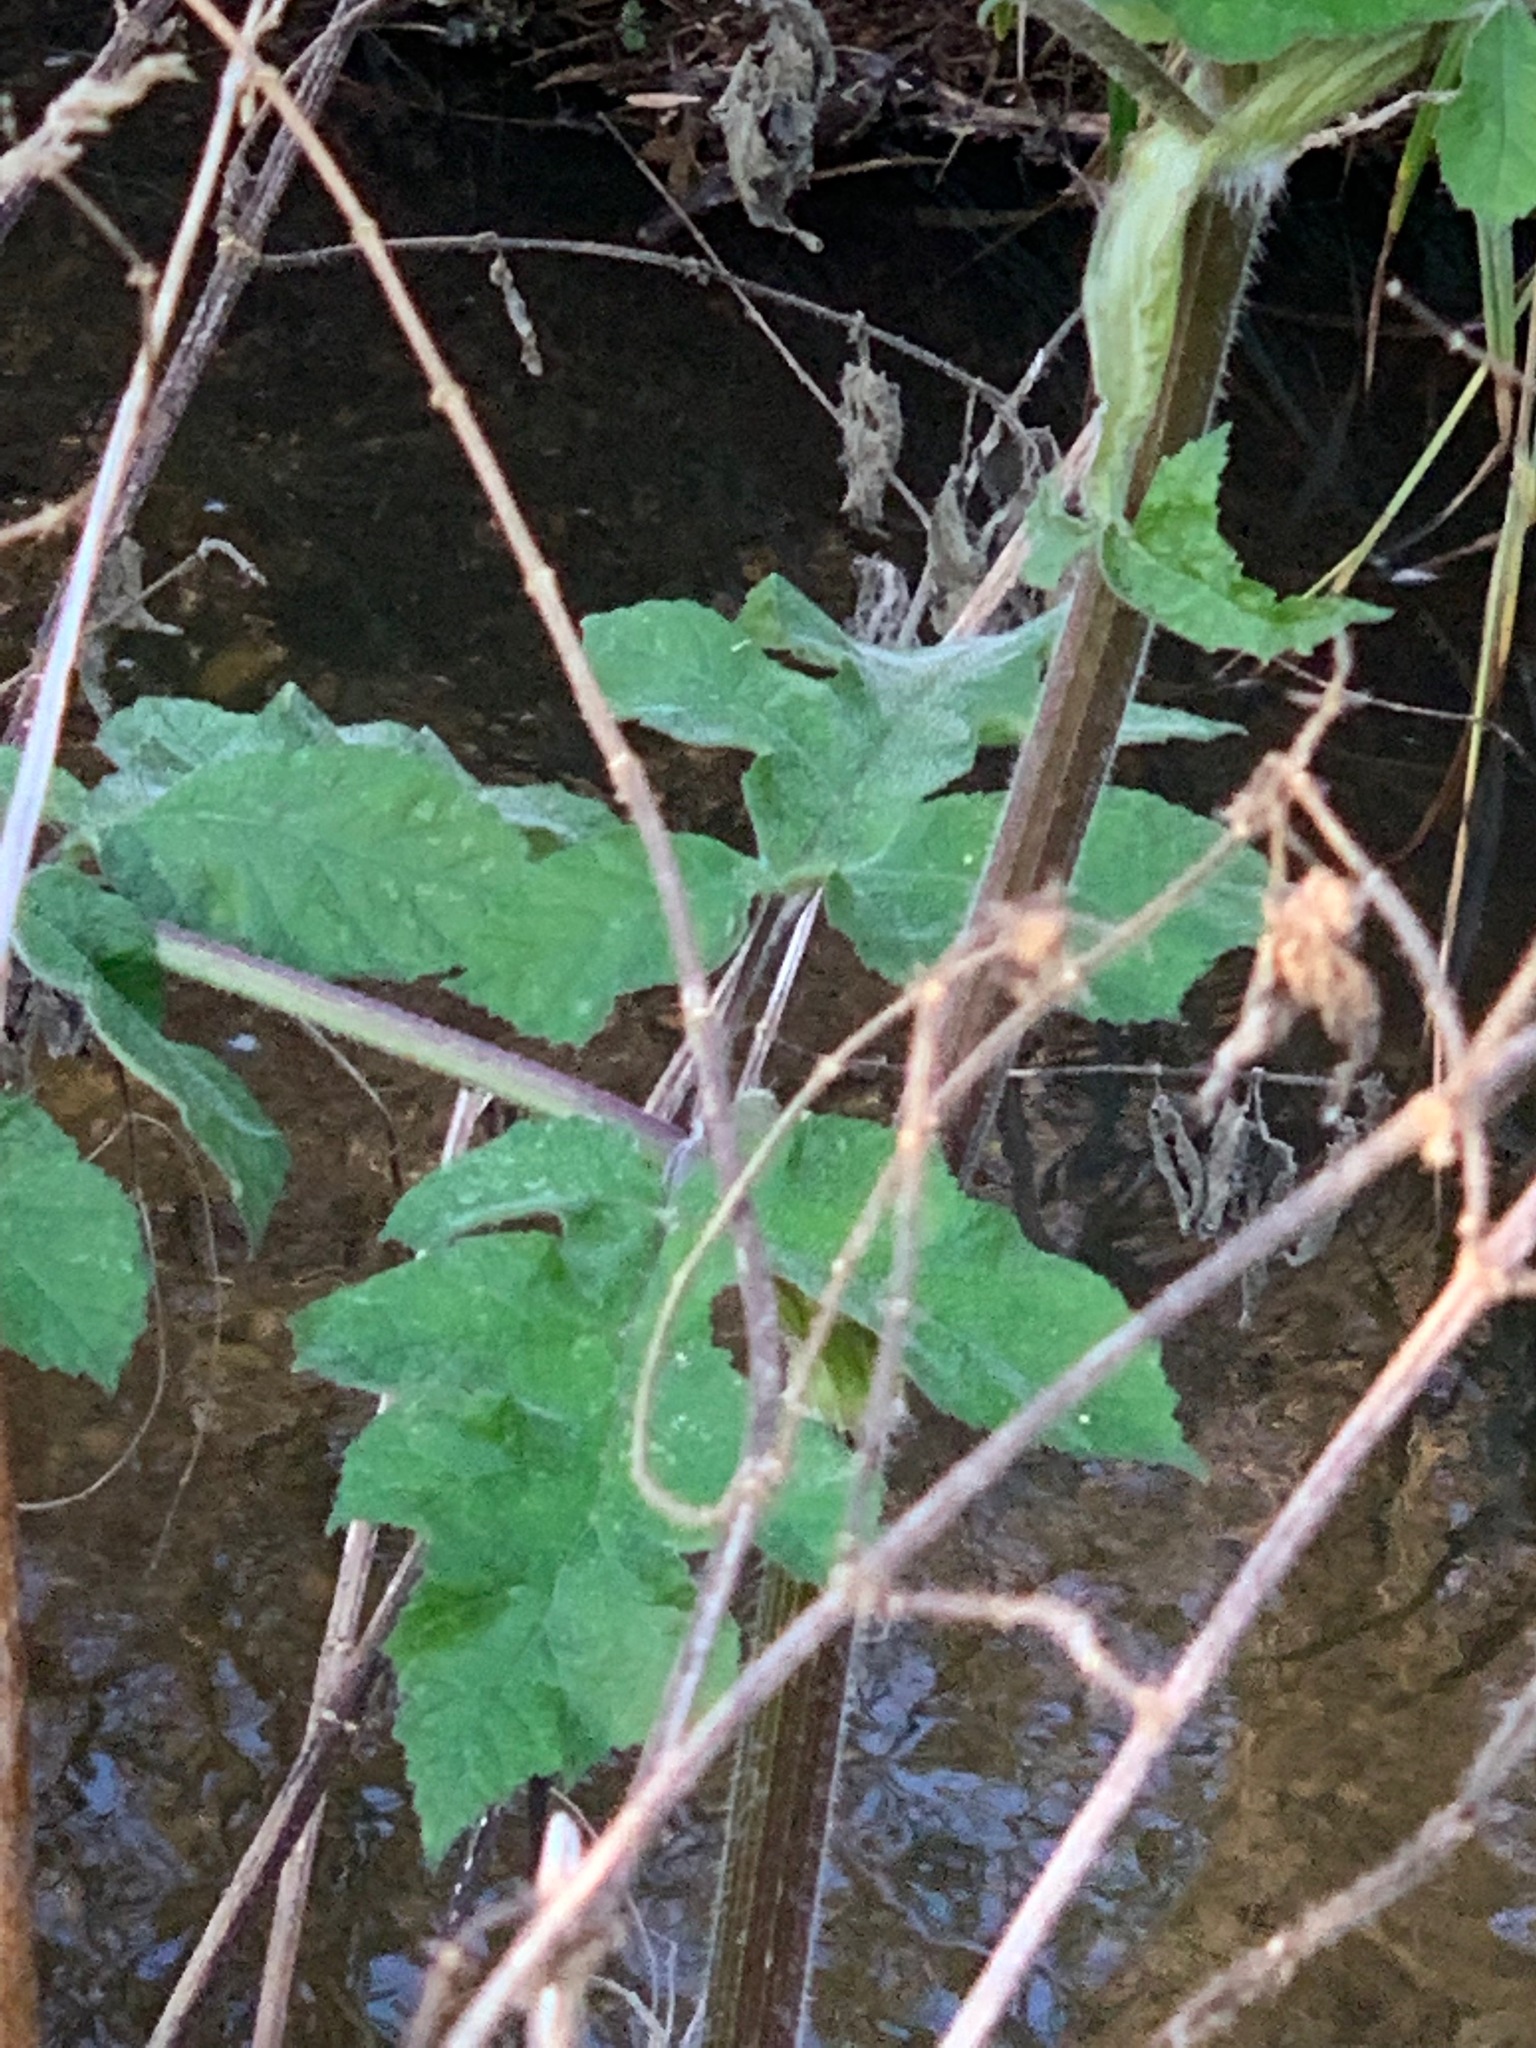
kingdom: Plantae
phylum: Tracheophyta
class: Magnoliopsida
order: Apiales
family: Apiaceae
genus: Heracleum
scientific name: Heracleum sphondylium
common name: Hogweed
